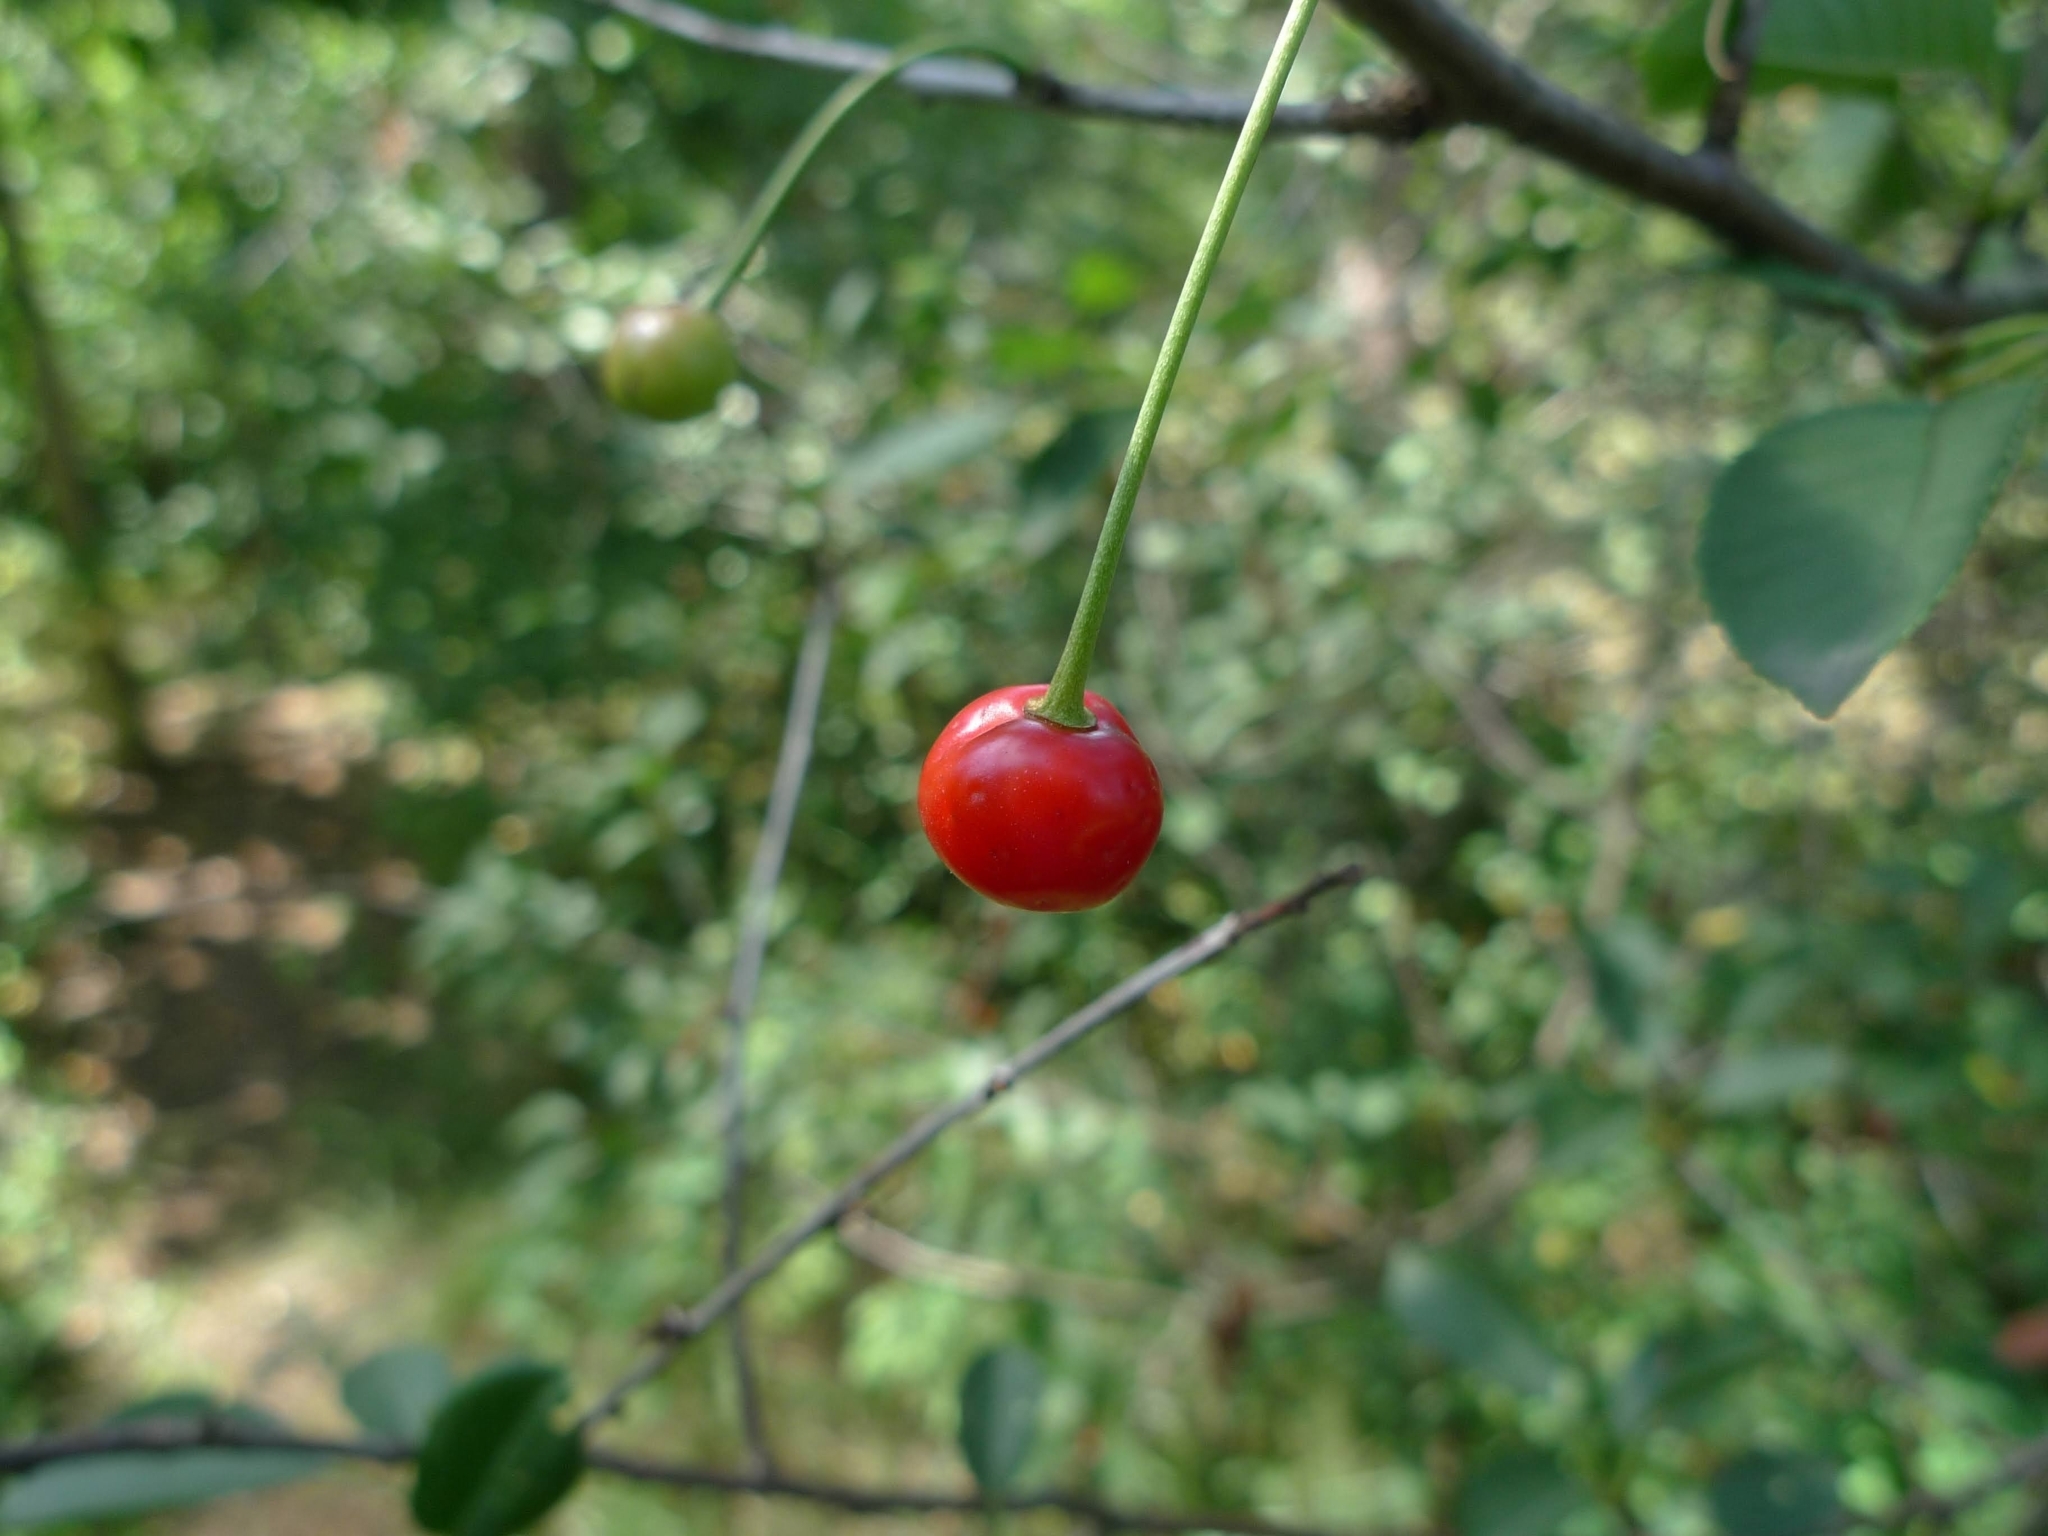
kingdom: Plantae
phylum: Tracheophyta
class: Magnoliopsida
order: Rosales
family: Rosaceae
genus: Prunus
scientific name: Prunus avium
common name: Sweet cherry
